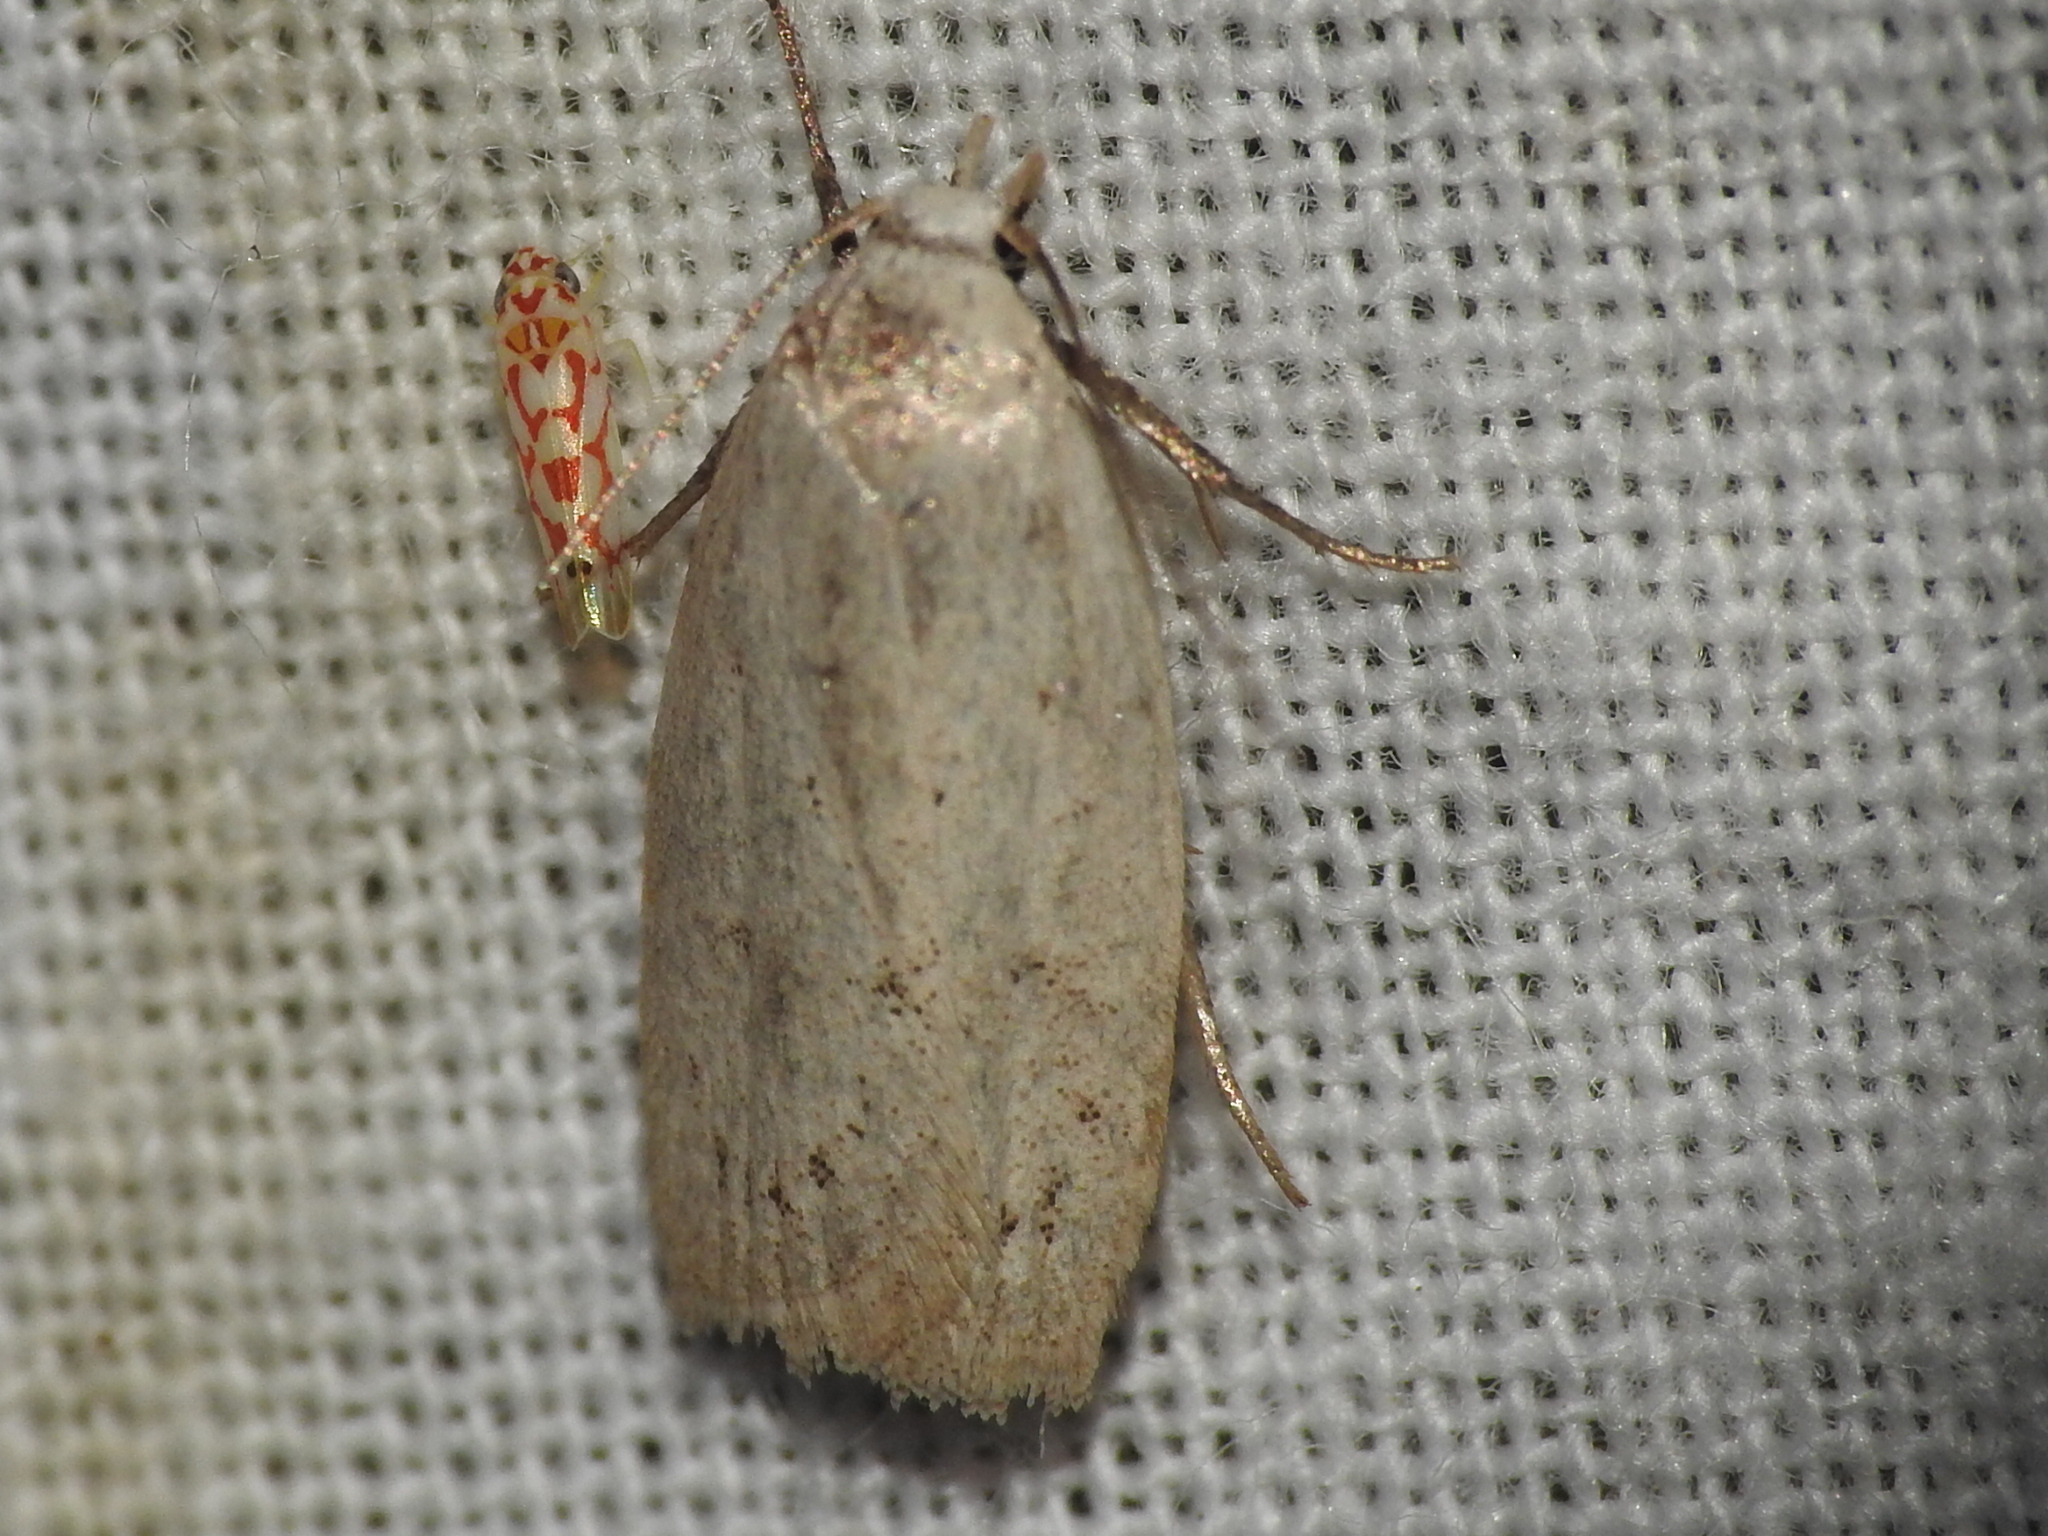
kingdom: Animalia
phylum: Arthropoda
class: Insecta
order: Lepidoptera
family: Oecophoridae
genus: Inga
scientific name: Inga cretacea
